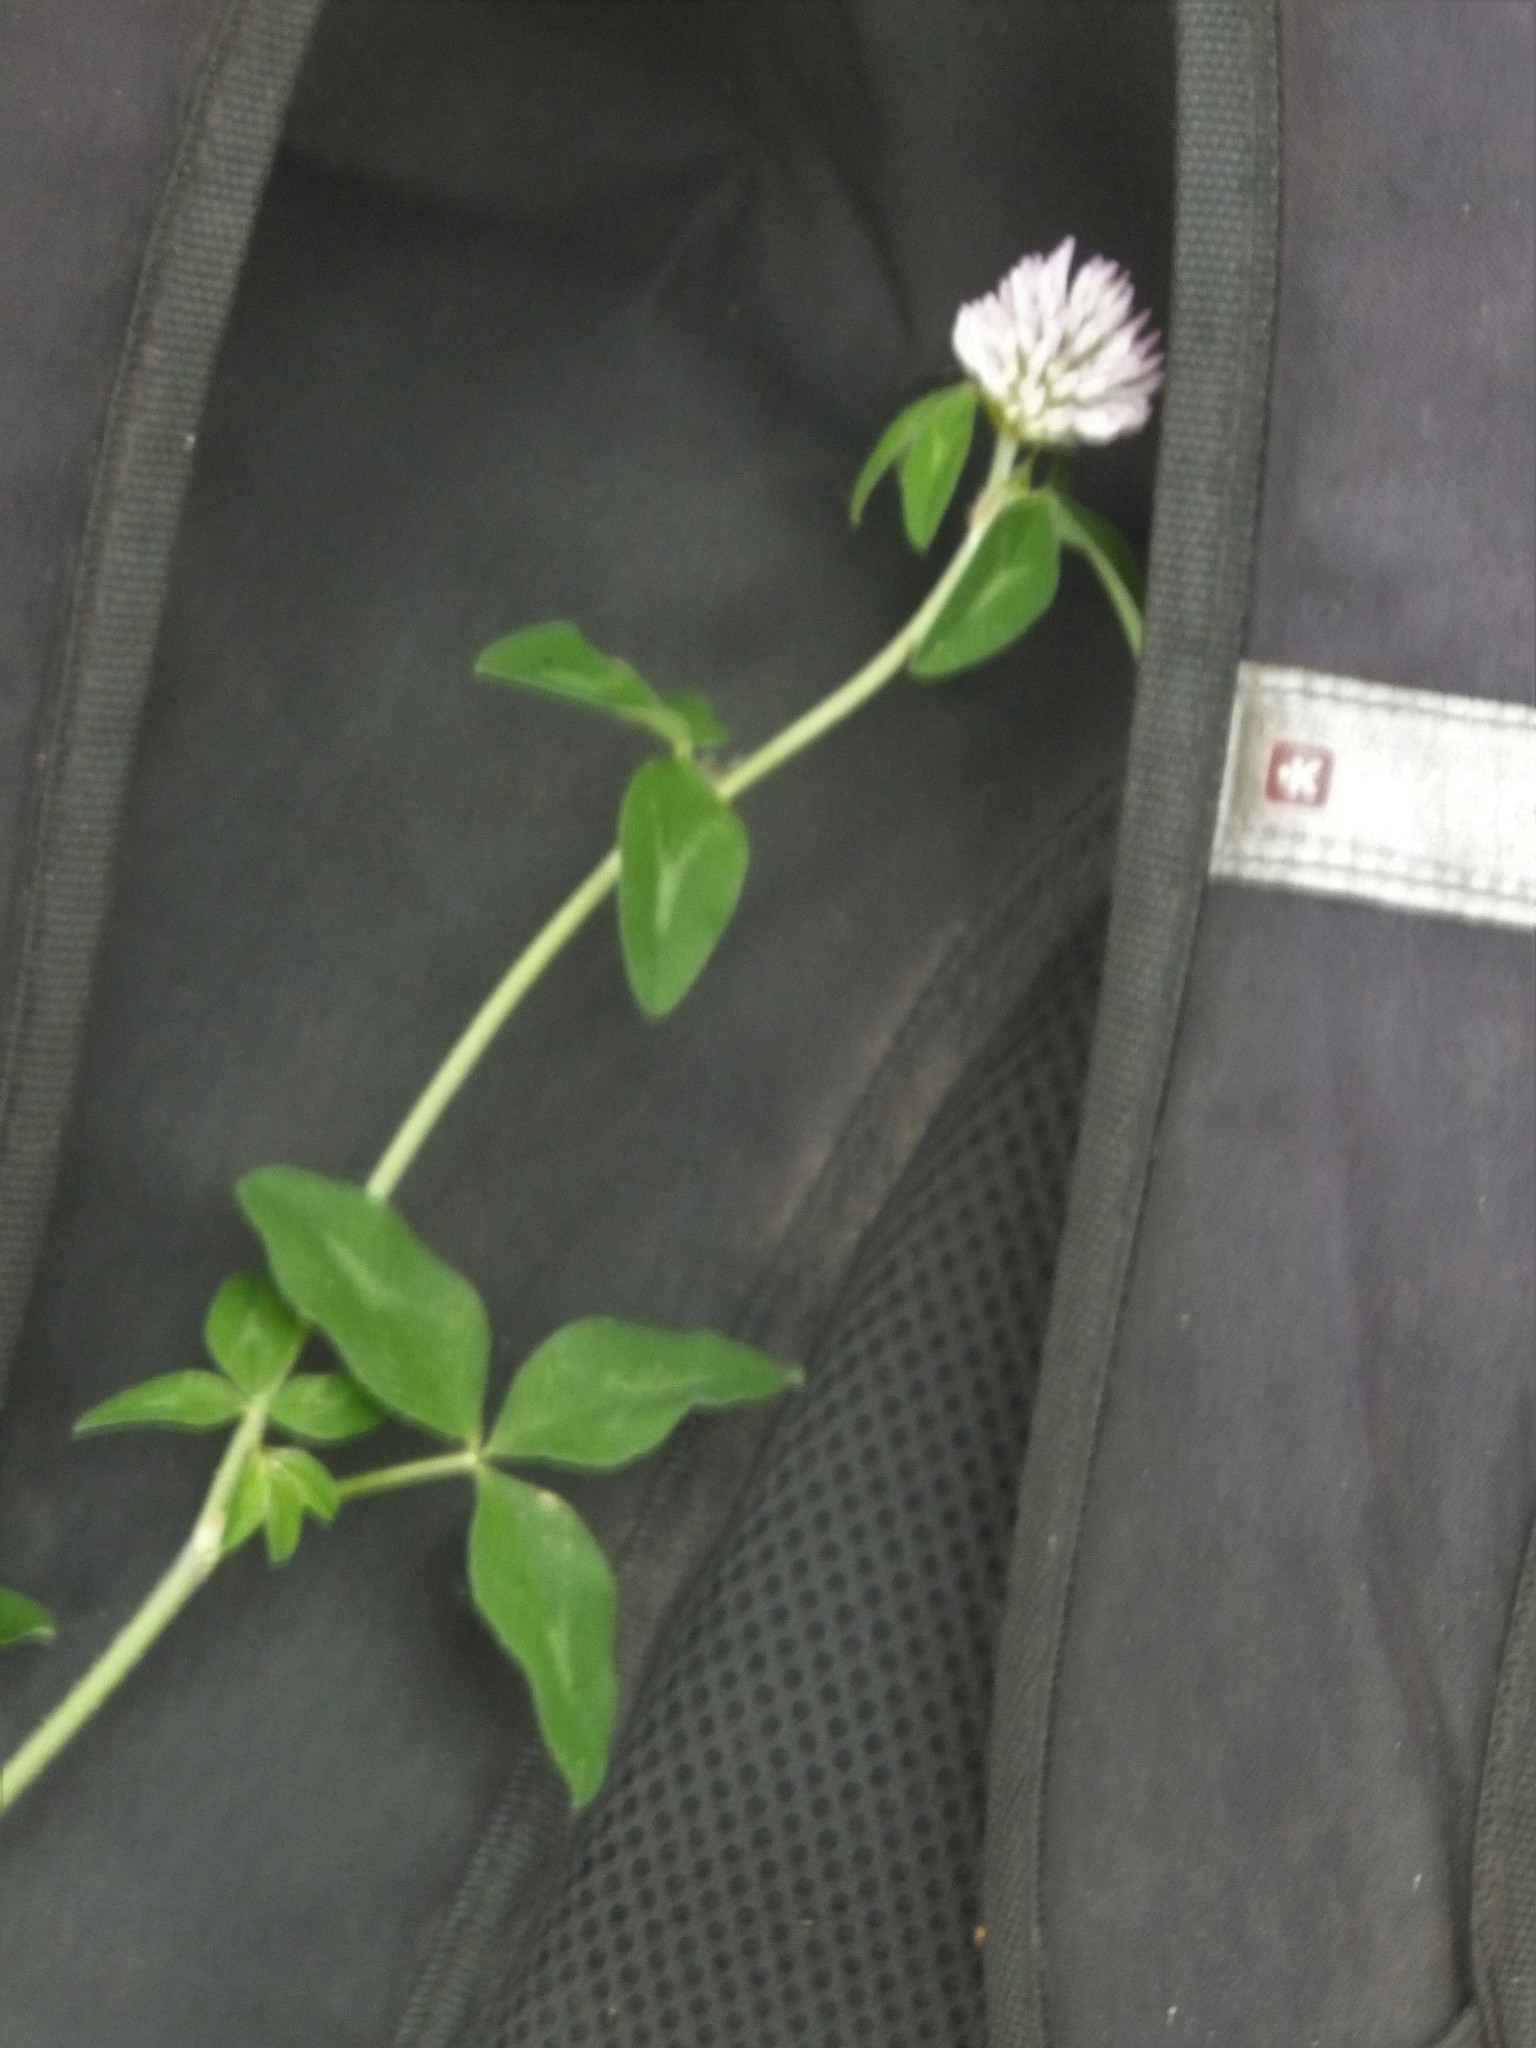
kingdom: Plantae
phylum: Tracheophyta
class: Magnoliopsida
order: Fabales
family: Fabaceae
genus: Trifolium
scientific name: Trifolium pratense
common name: Red clover
